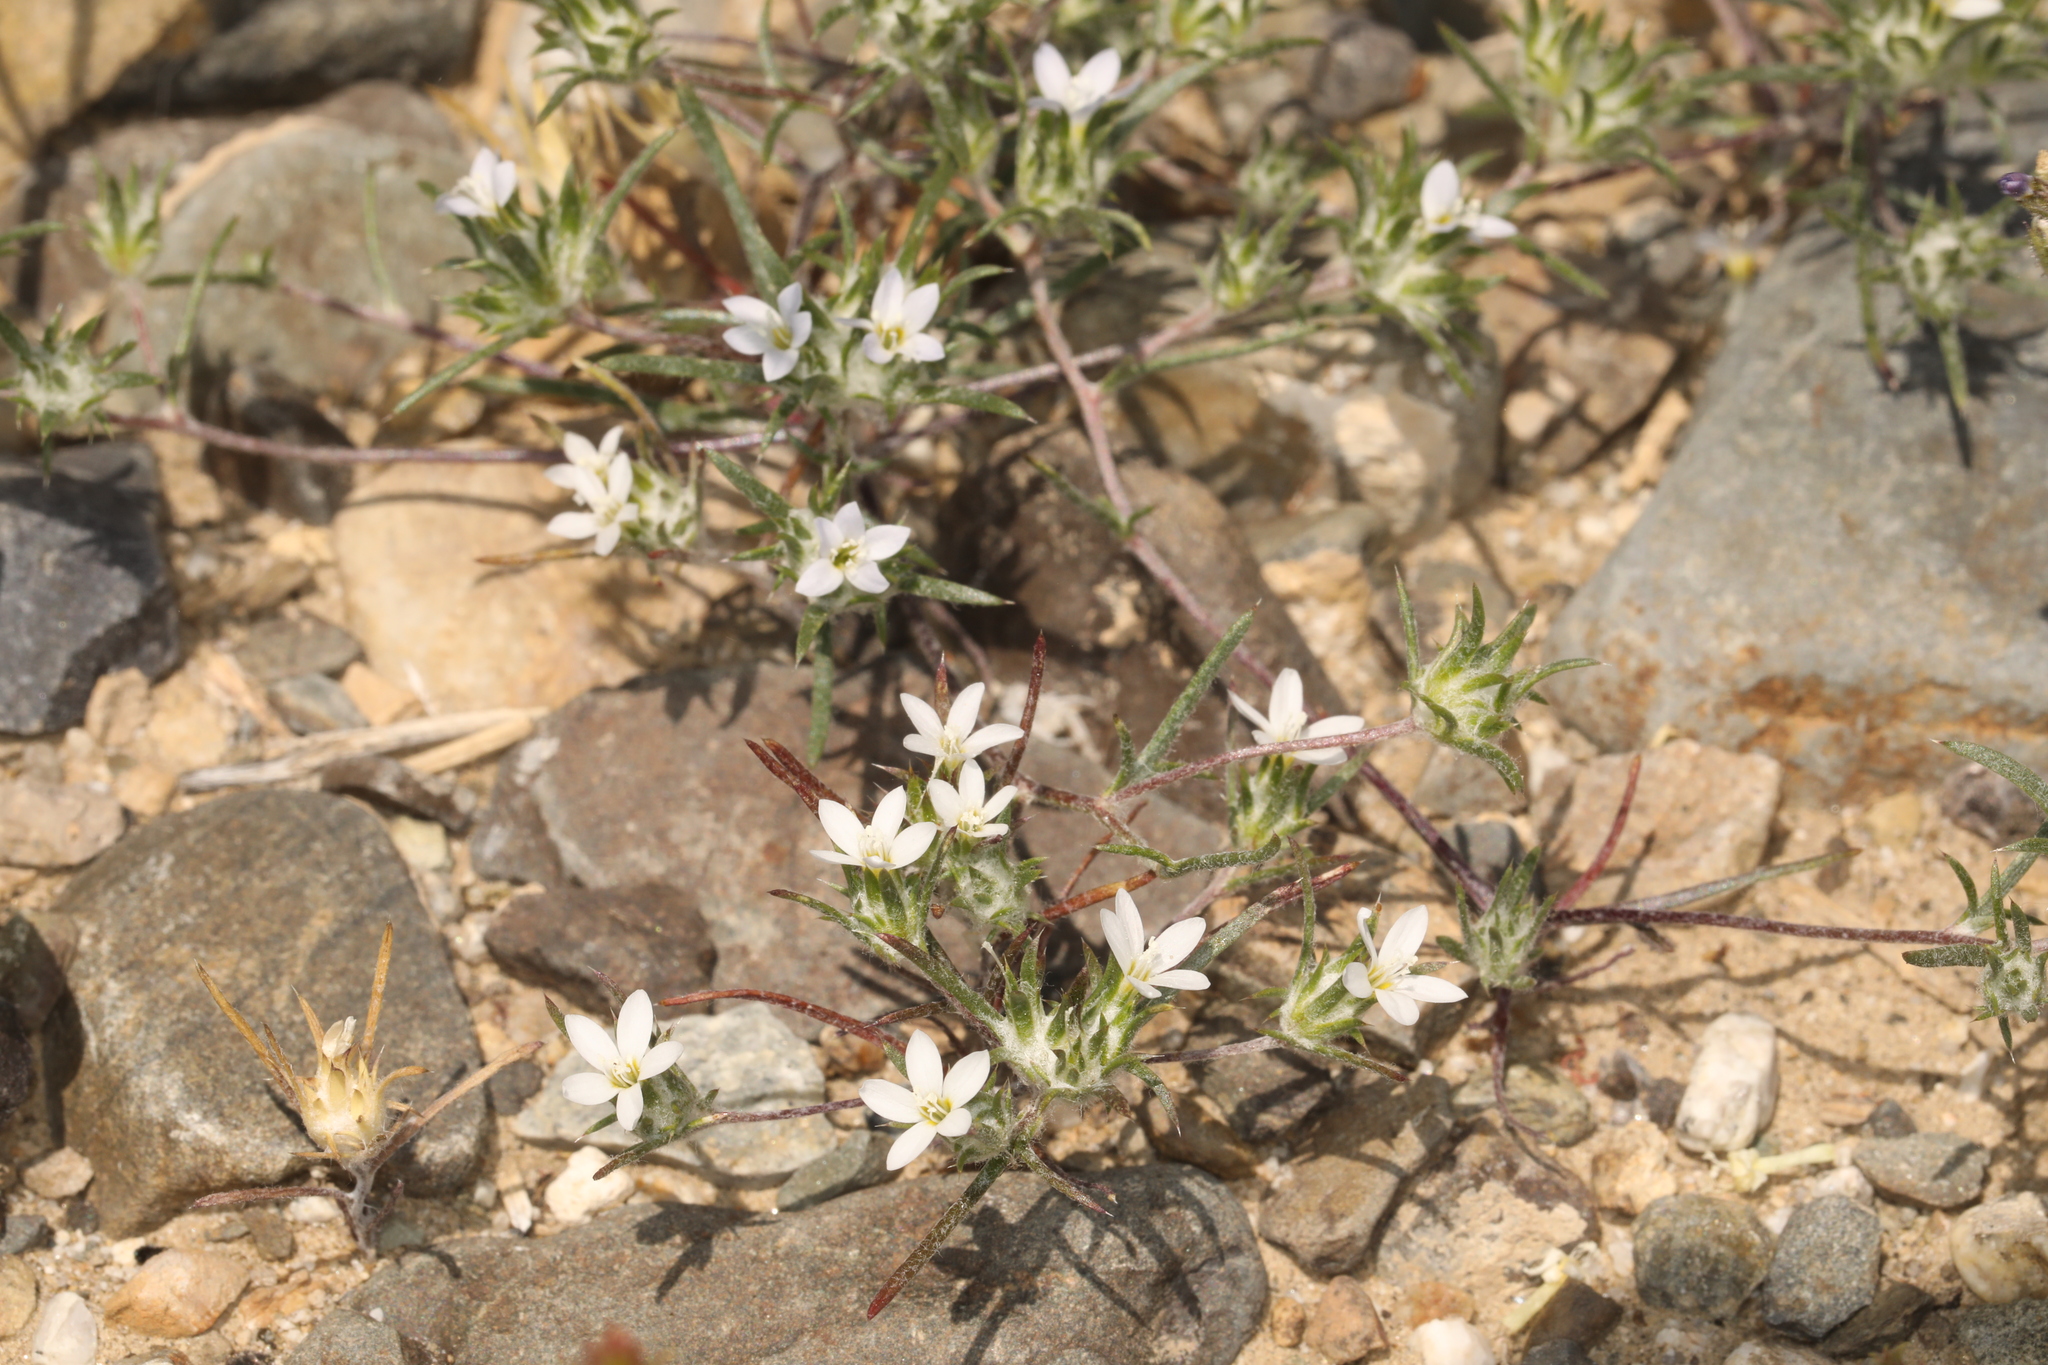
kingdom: Plantae
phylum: Tracheophyta
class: Magnoliopsida
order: Ericales
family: Polemoniaceae
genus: Eriastrum
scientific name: Eriastrum diffusum
